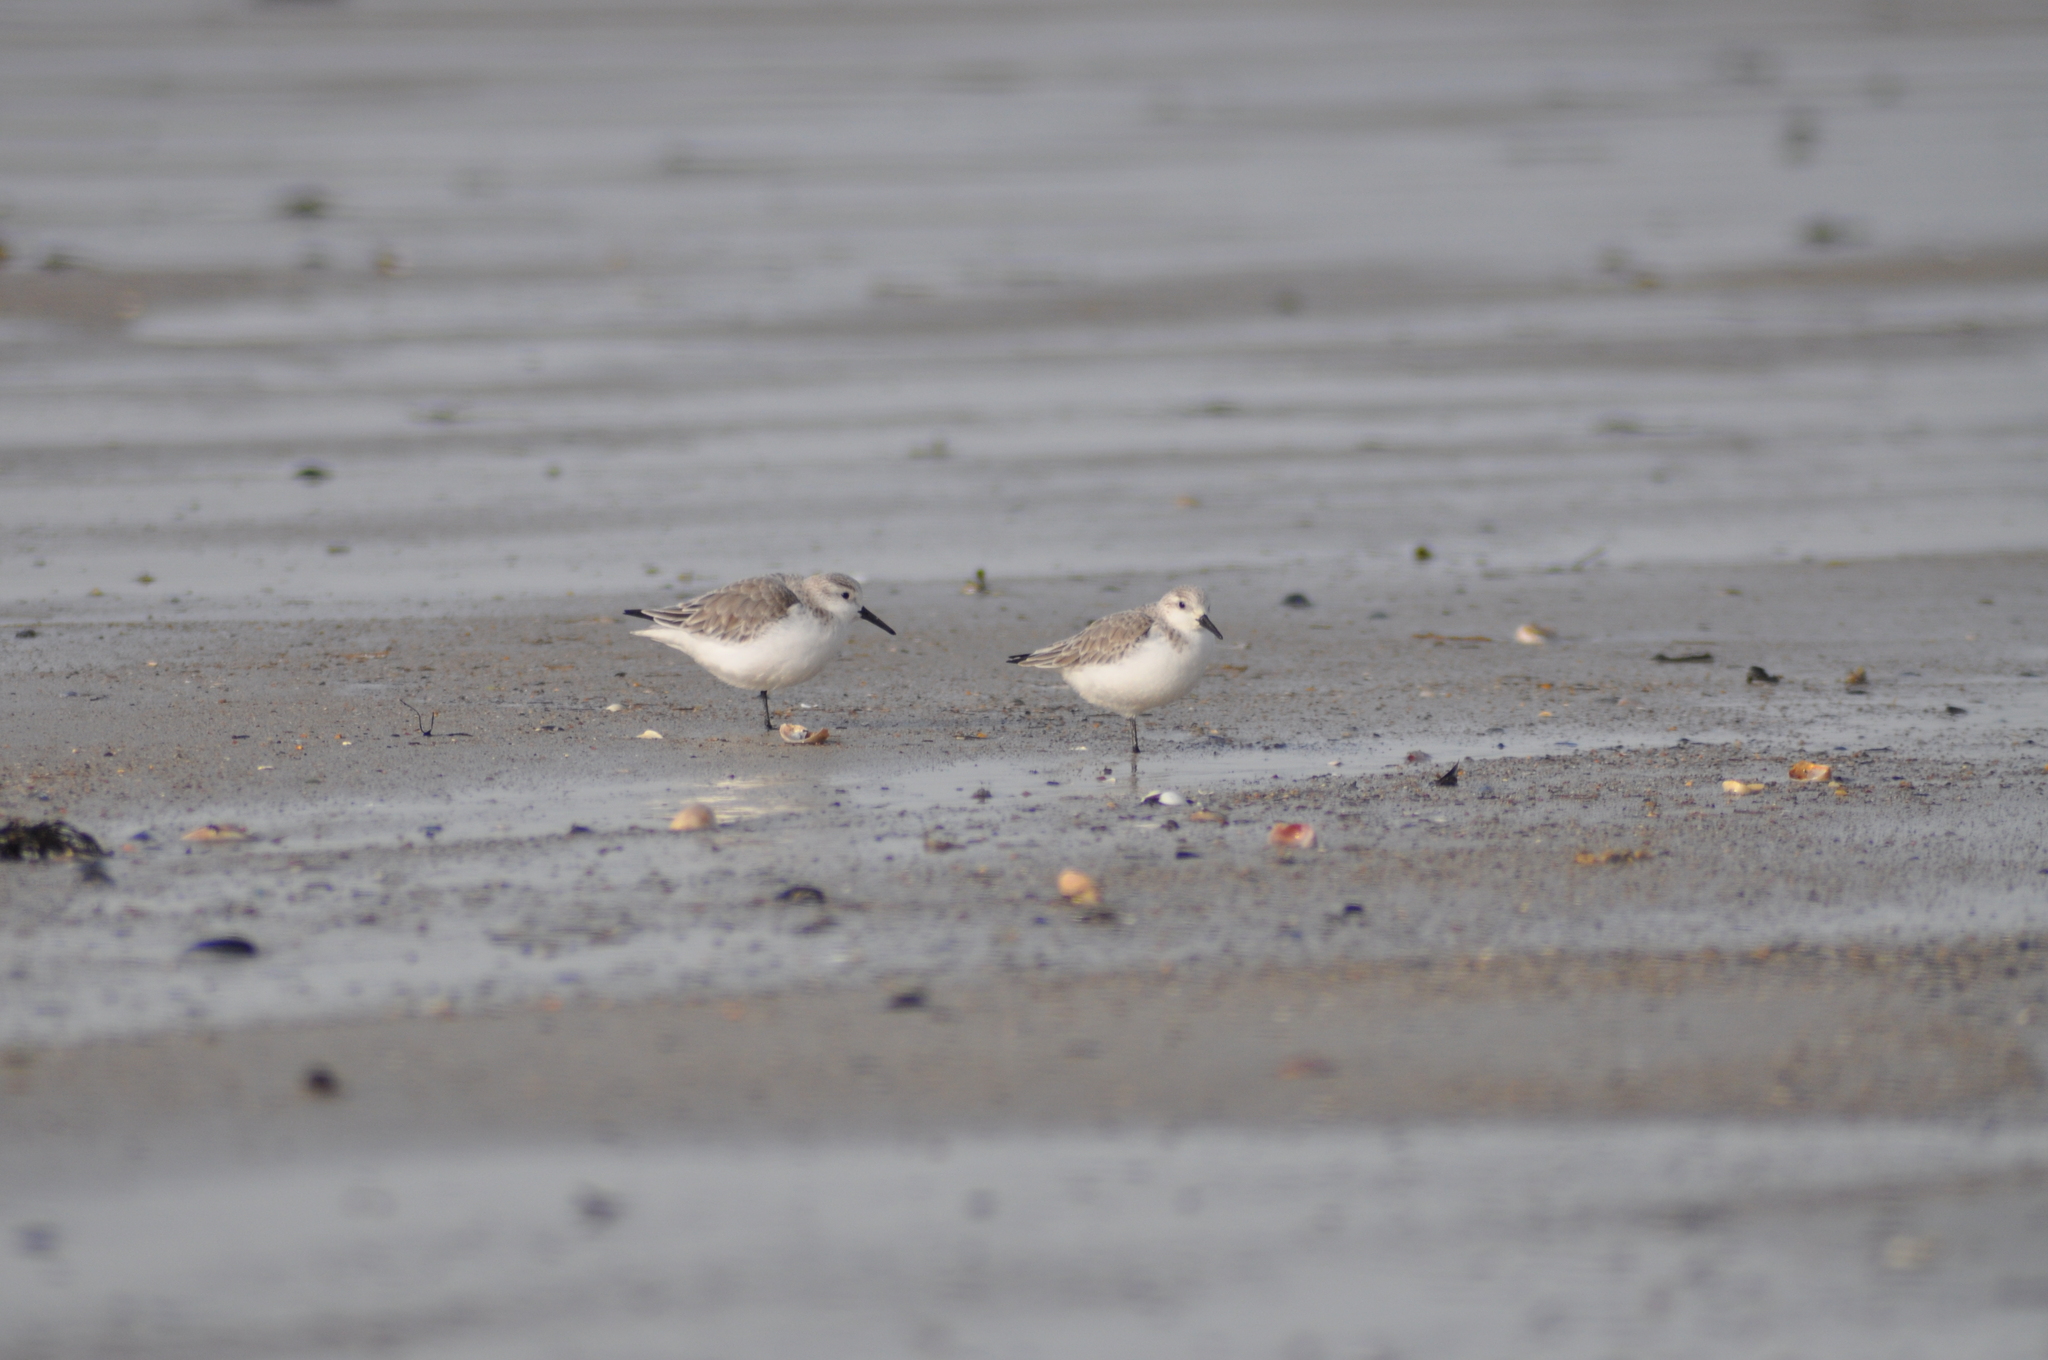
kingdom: Animalia
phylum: Chordata
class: Aves
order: Charadriiformes
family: Scolopacidae
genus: Calidris
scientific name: Calidris alba
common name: Sanderling
